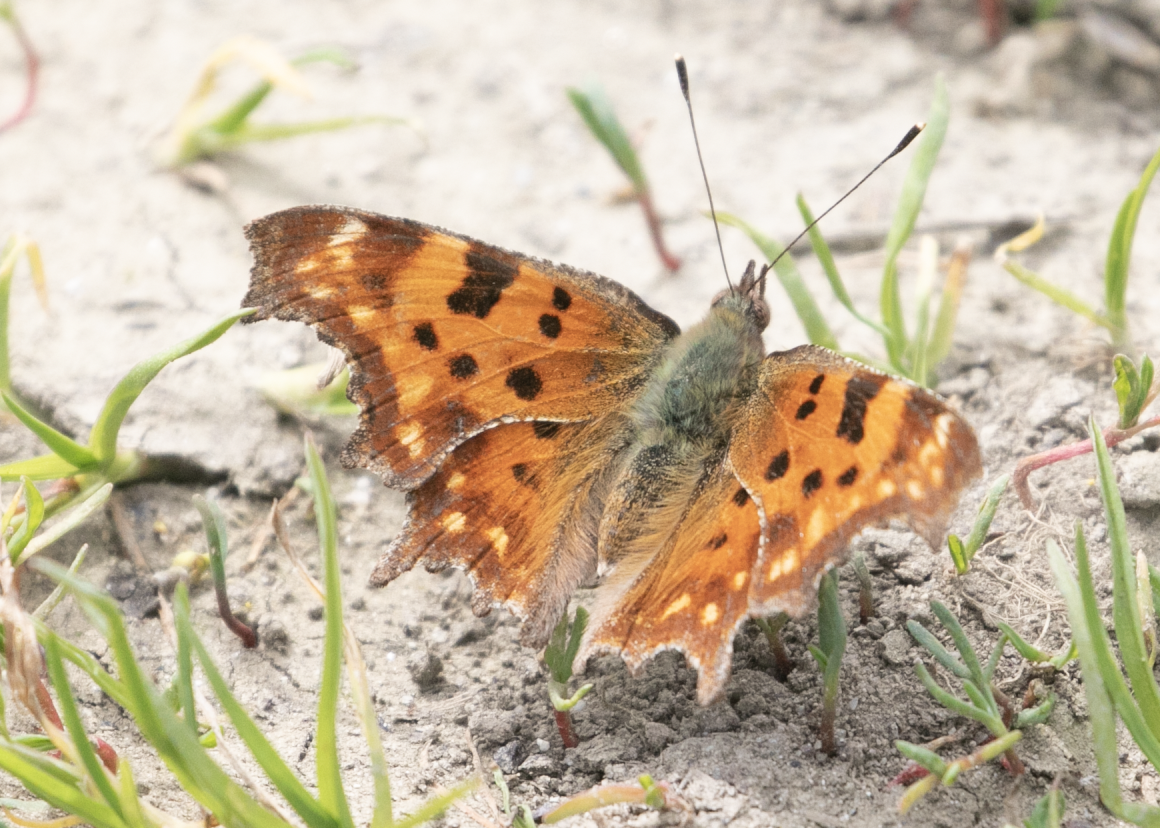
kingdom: Animalia
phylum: Arthropoda
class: Insecta
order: Lepidoptera
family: Nymphalidae
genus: Polygonia
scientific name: Polygonia c-album
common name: Comma
